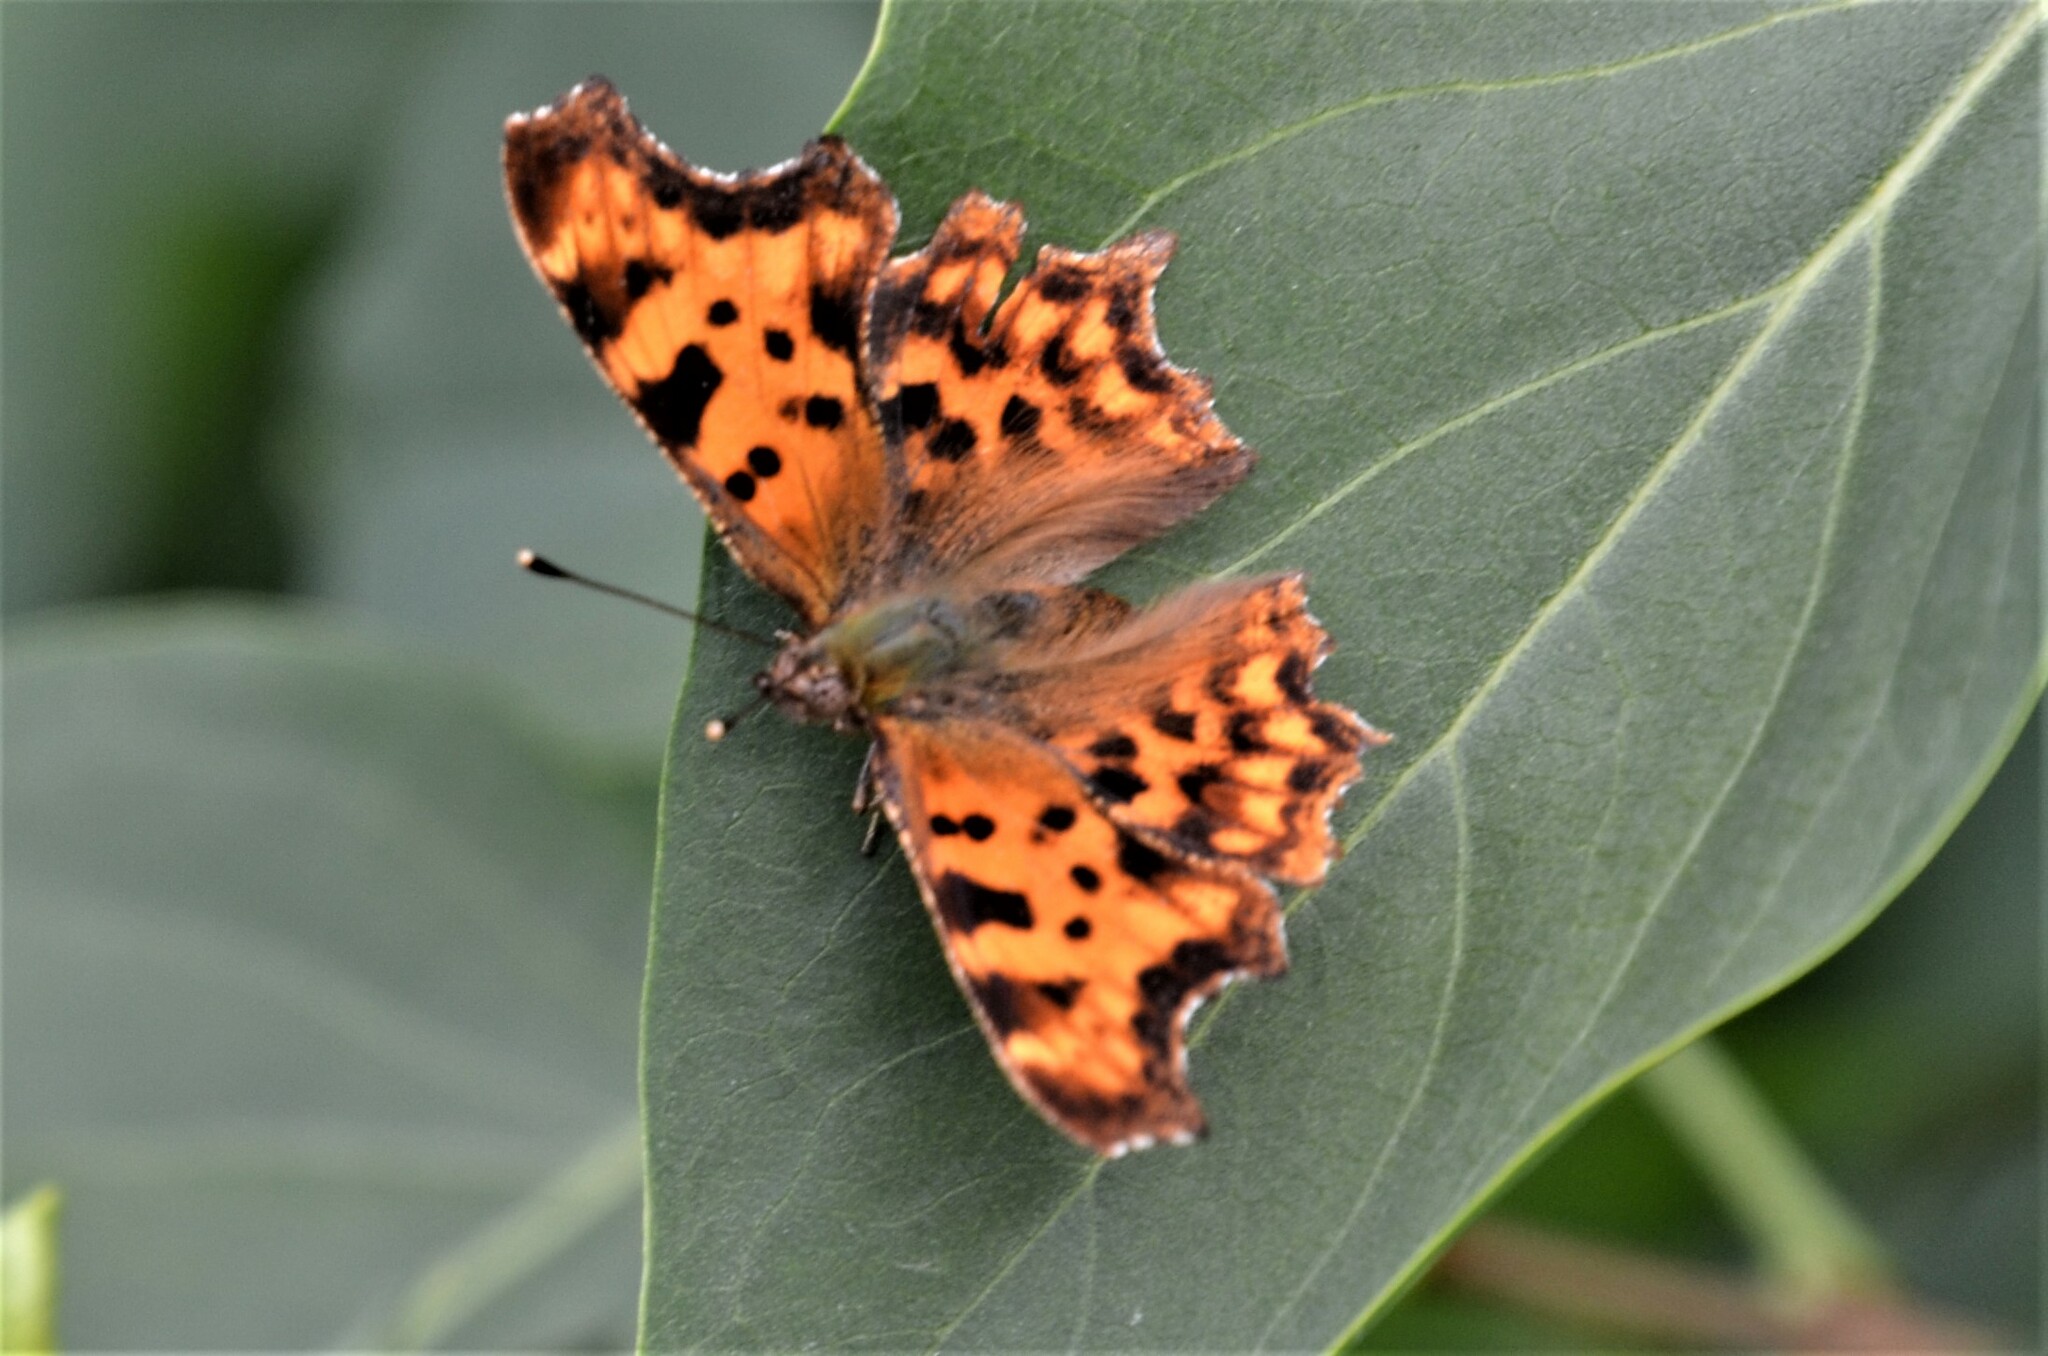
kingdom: Animalia
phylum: Arthropoda
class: Insecta
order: Lepidoptera
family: Nymphalidae
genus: Polygonia
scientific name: Polygonia c-album
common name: Comma
